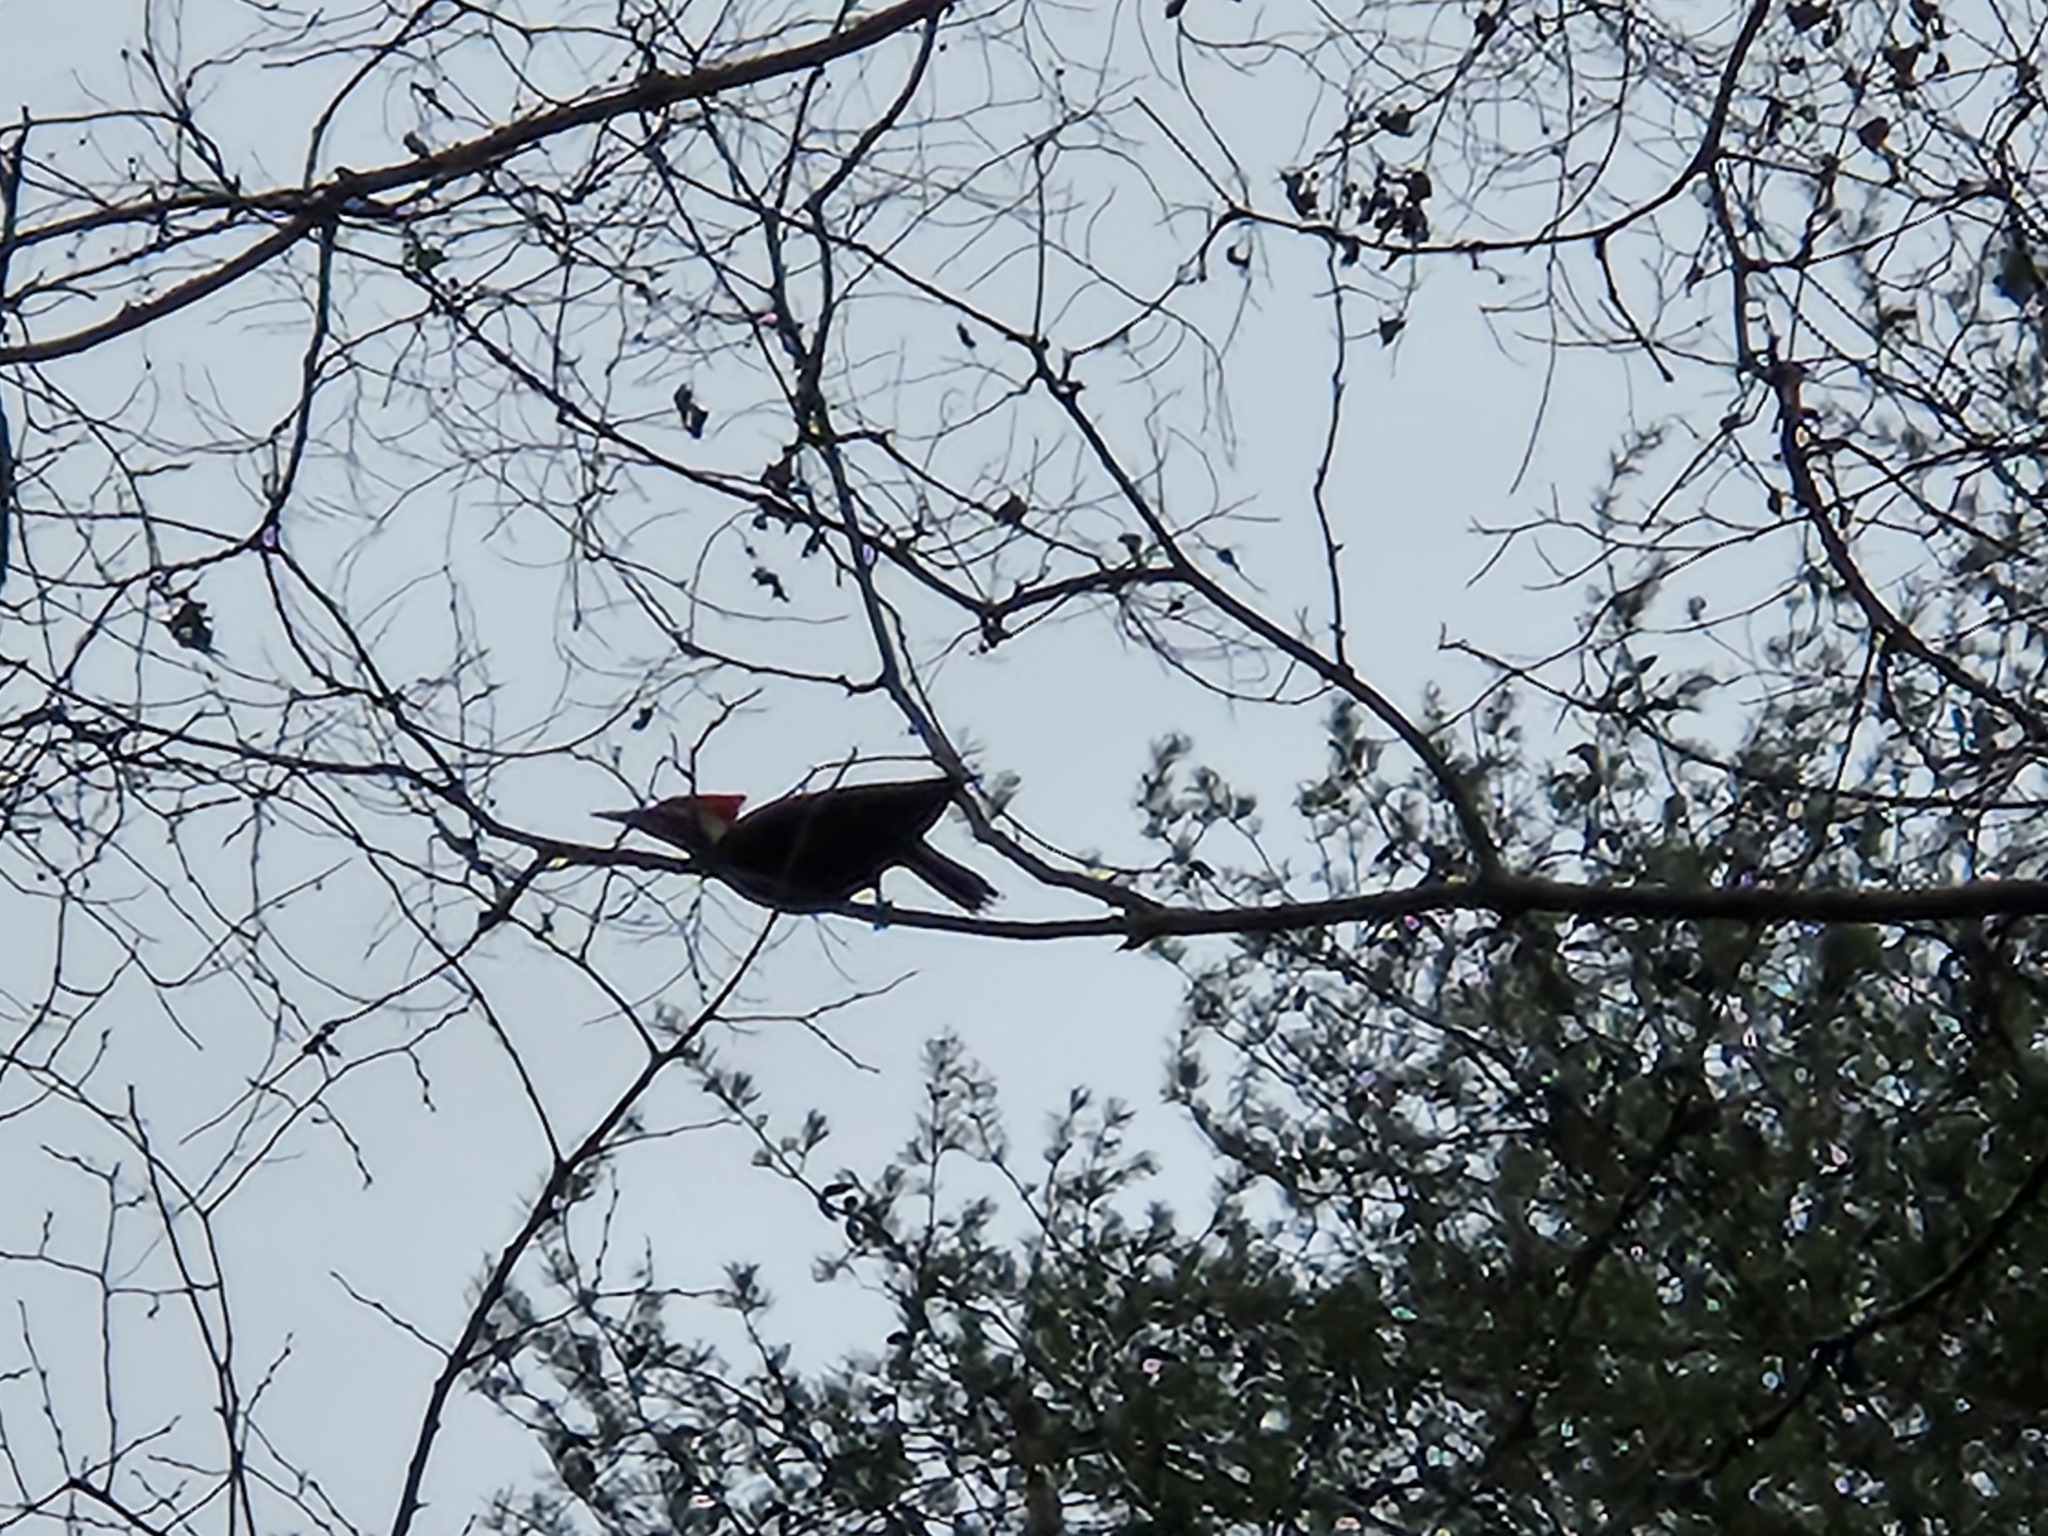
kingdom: Animalia
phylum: Chordata
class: Aves
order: Piciformes
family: Picidae
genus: Dryocopus
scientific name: Dryocopus pileatus
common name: Pileated woodpecker
